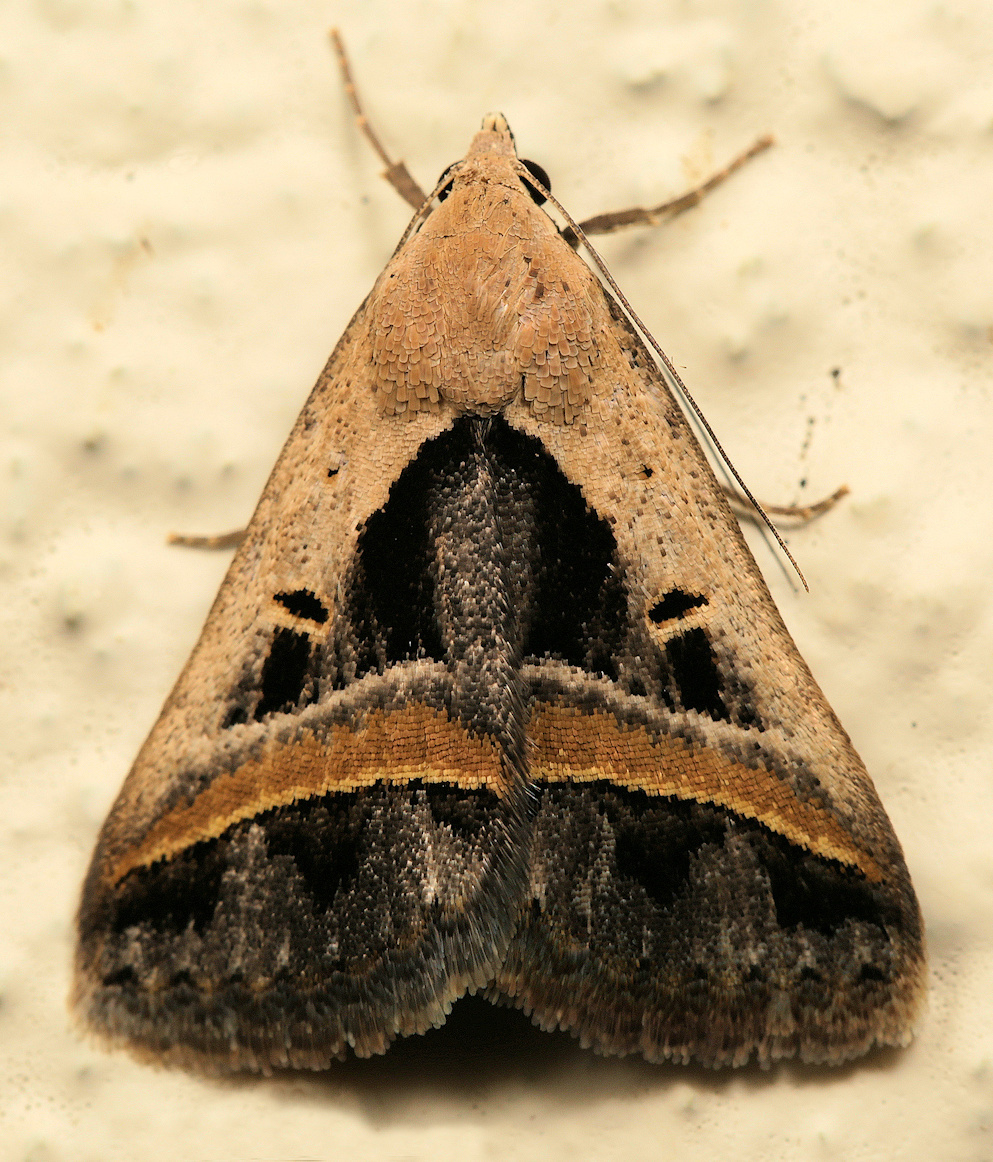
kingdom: Animalia
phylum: Arthropoda
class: Insecta
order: Lepidoptera
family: Erebidae
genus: Acantholipes
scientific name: Acantholipes trimeni
